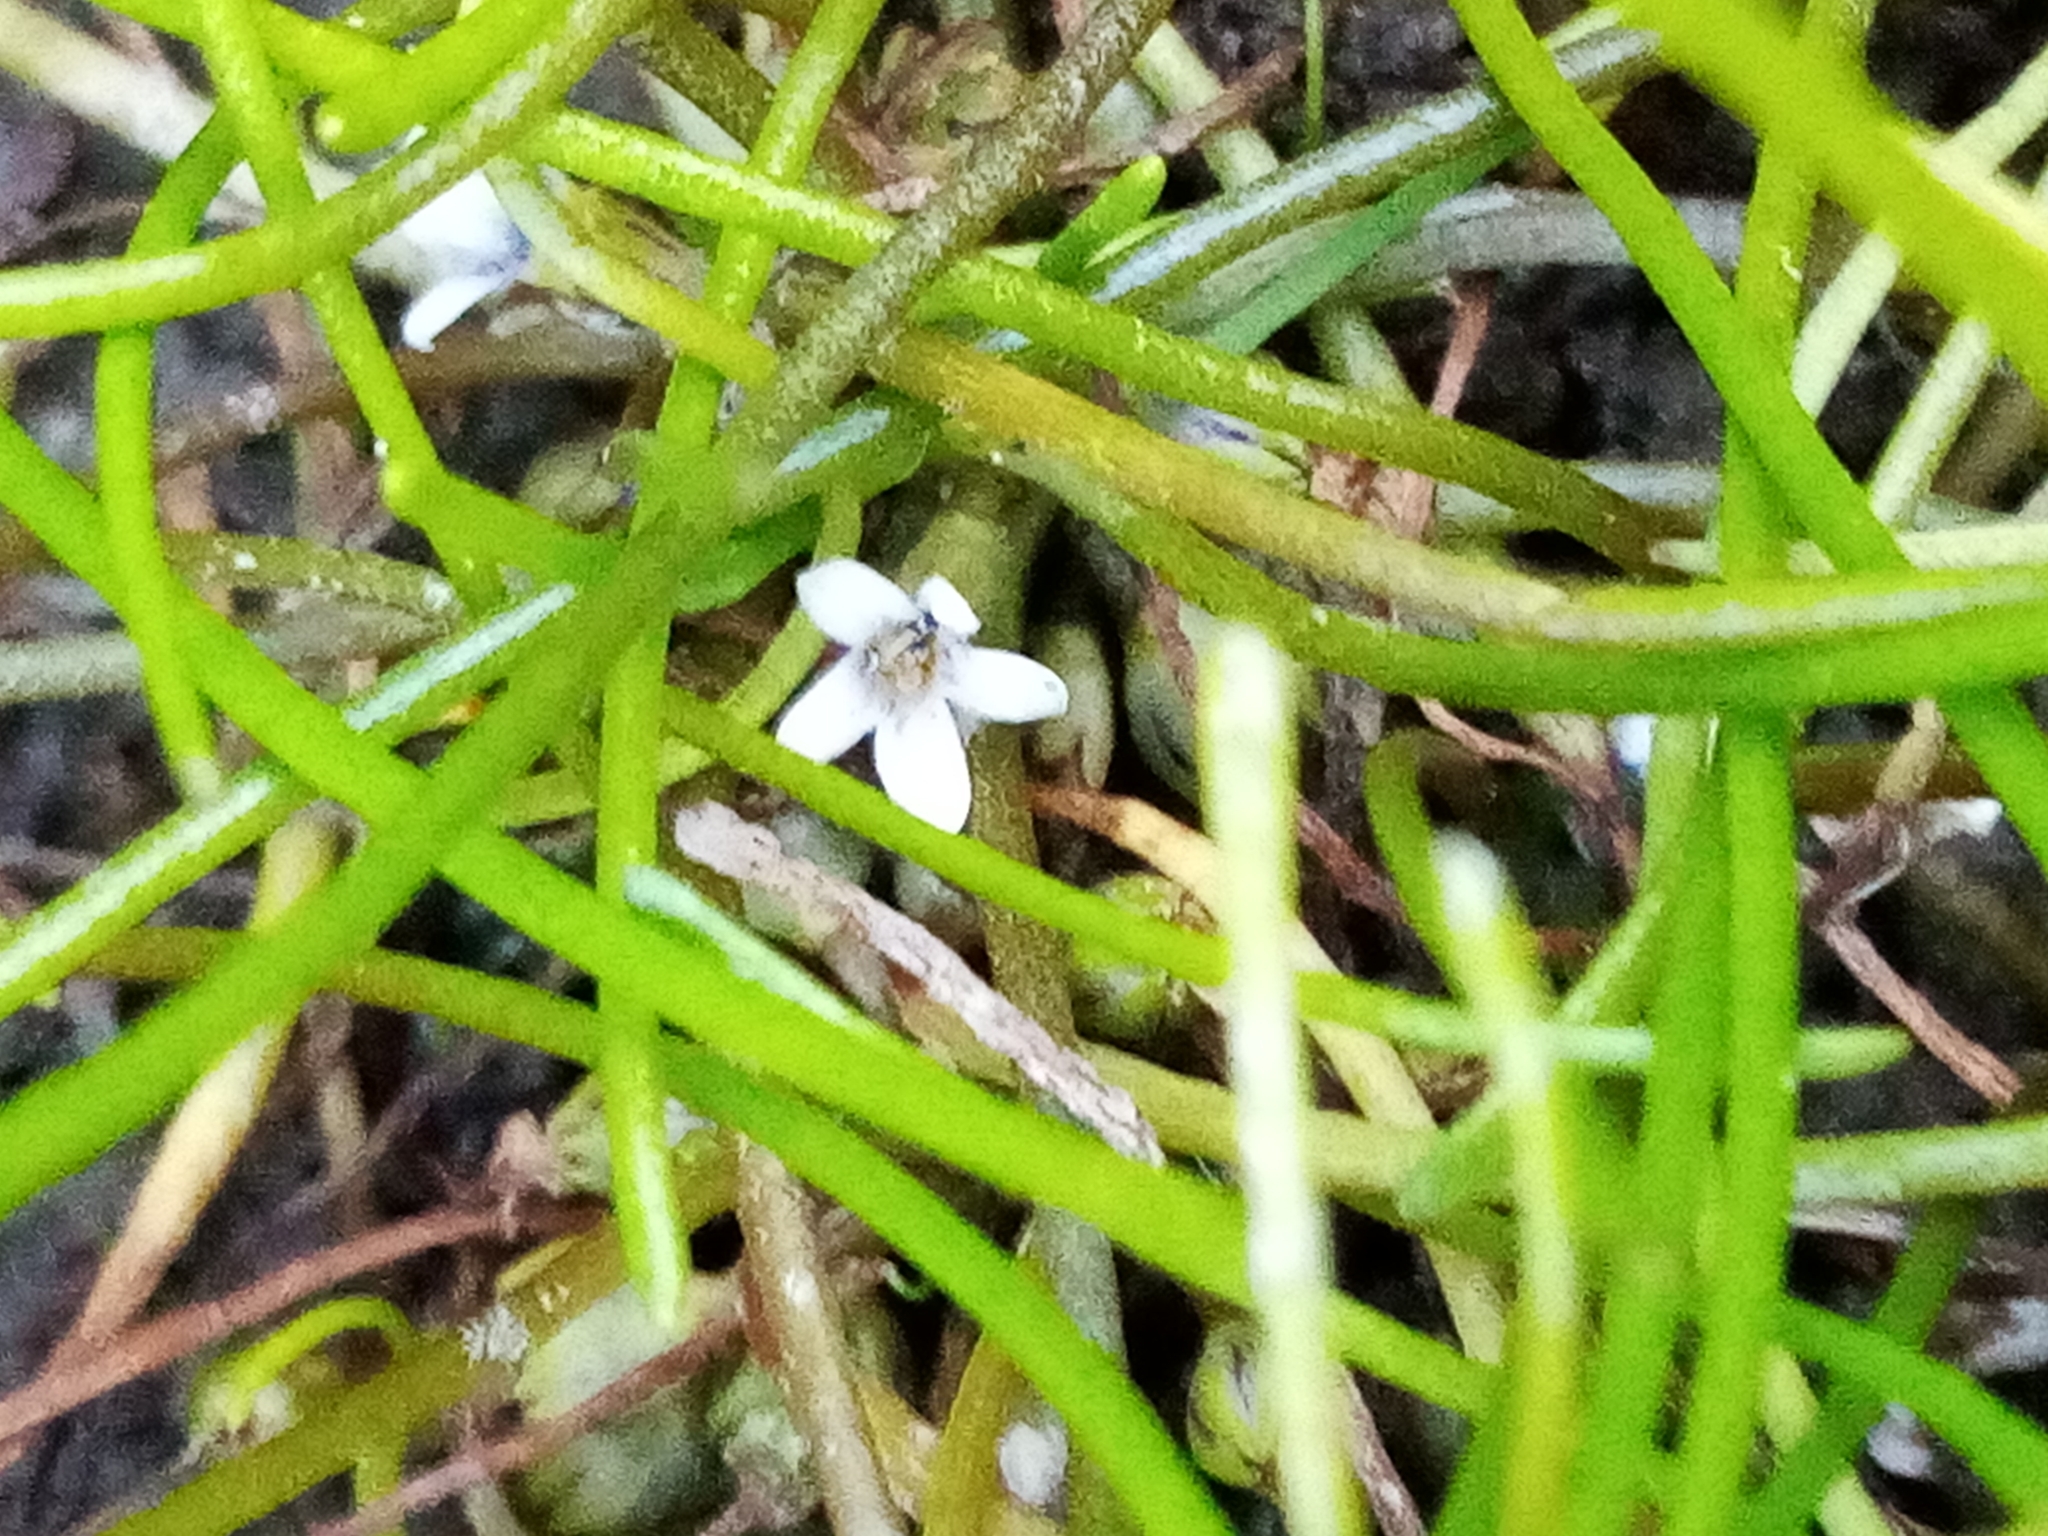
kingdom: Plantae
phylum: Tracheophyta
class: Magnoliopsida
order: Lamiales
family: Scrophulariaceae
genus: Limosella
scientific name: Limosella australis
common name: Welsh mudwort
